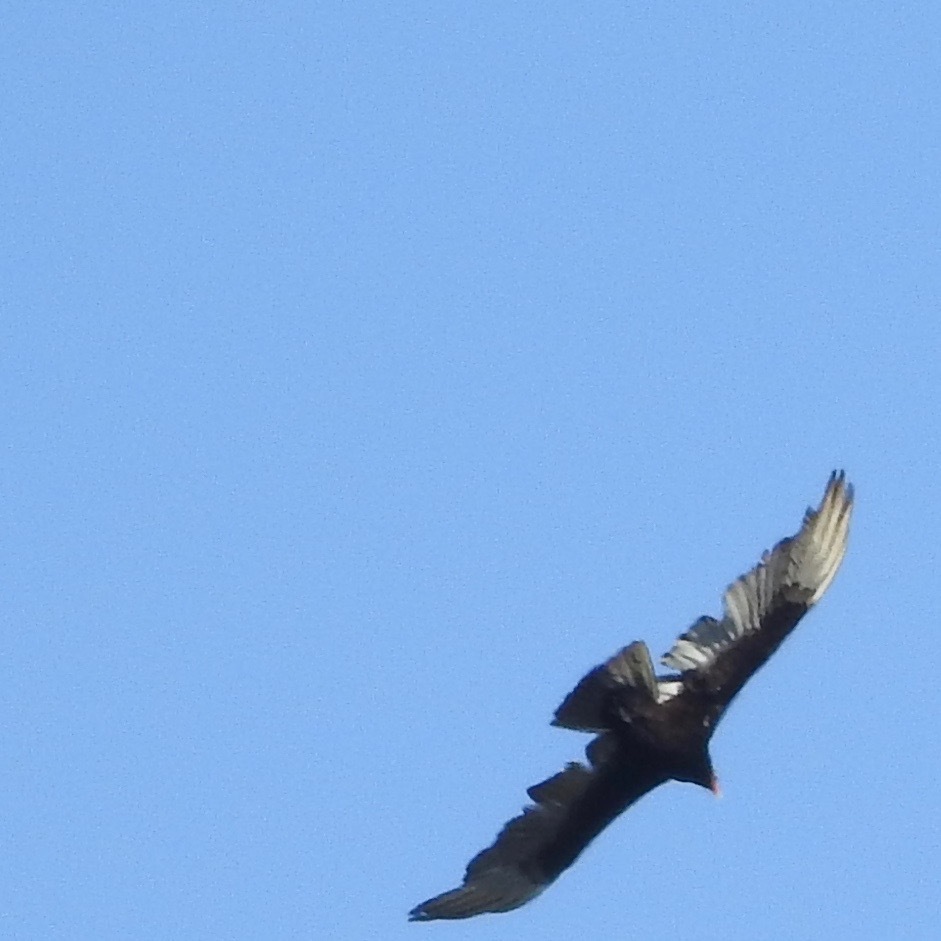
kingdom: Animalia
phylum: Chordata
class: Aves
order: Accipitriformes
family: Cathartidae
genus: Cathartes
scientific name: Cathartes aura
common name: Turkey vulture
